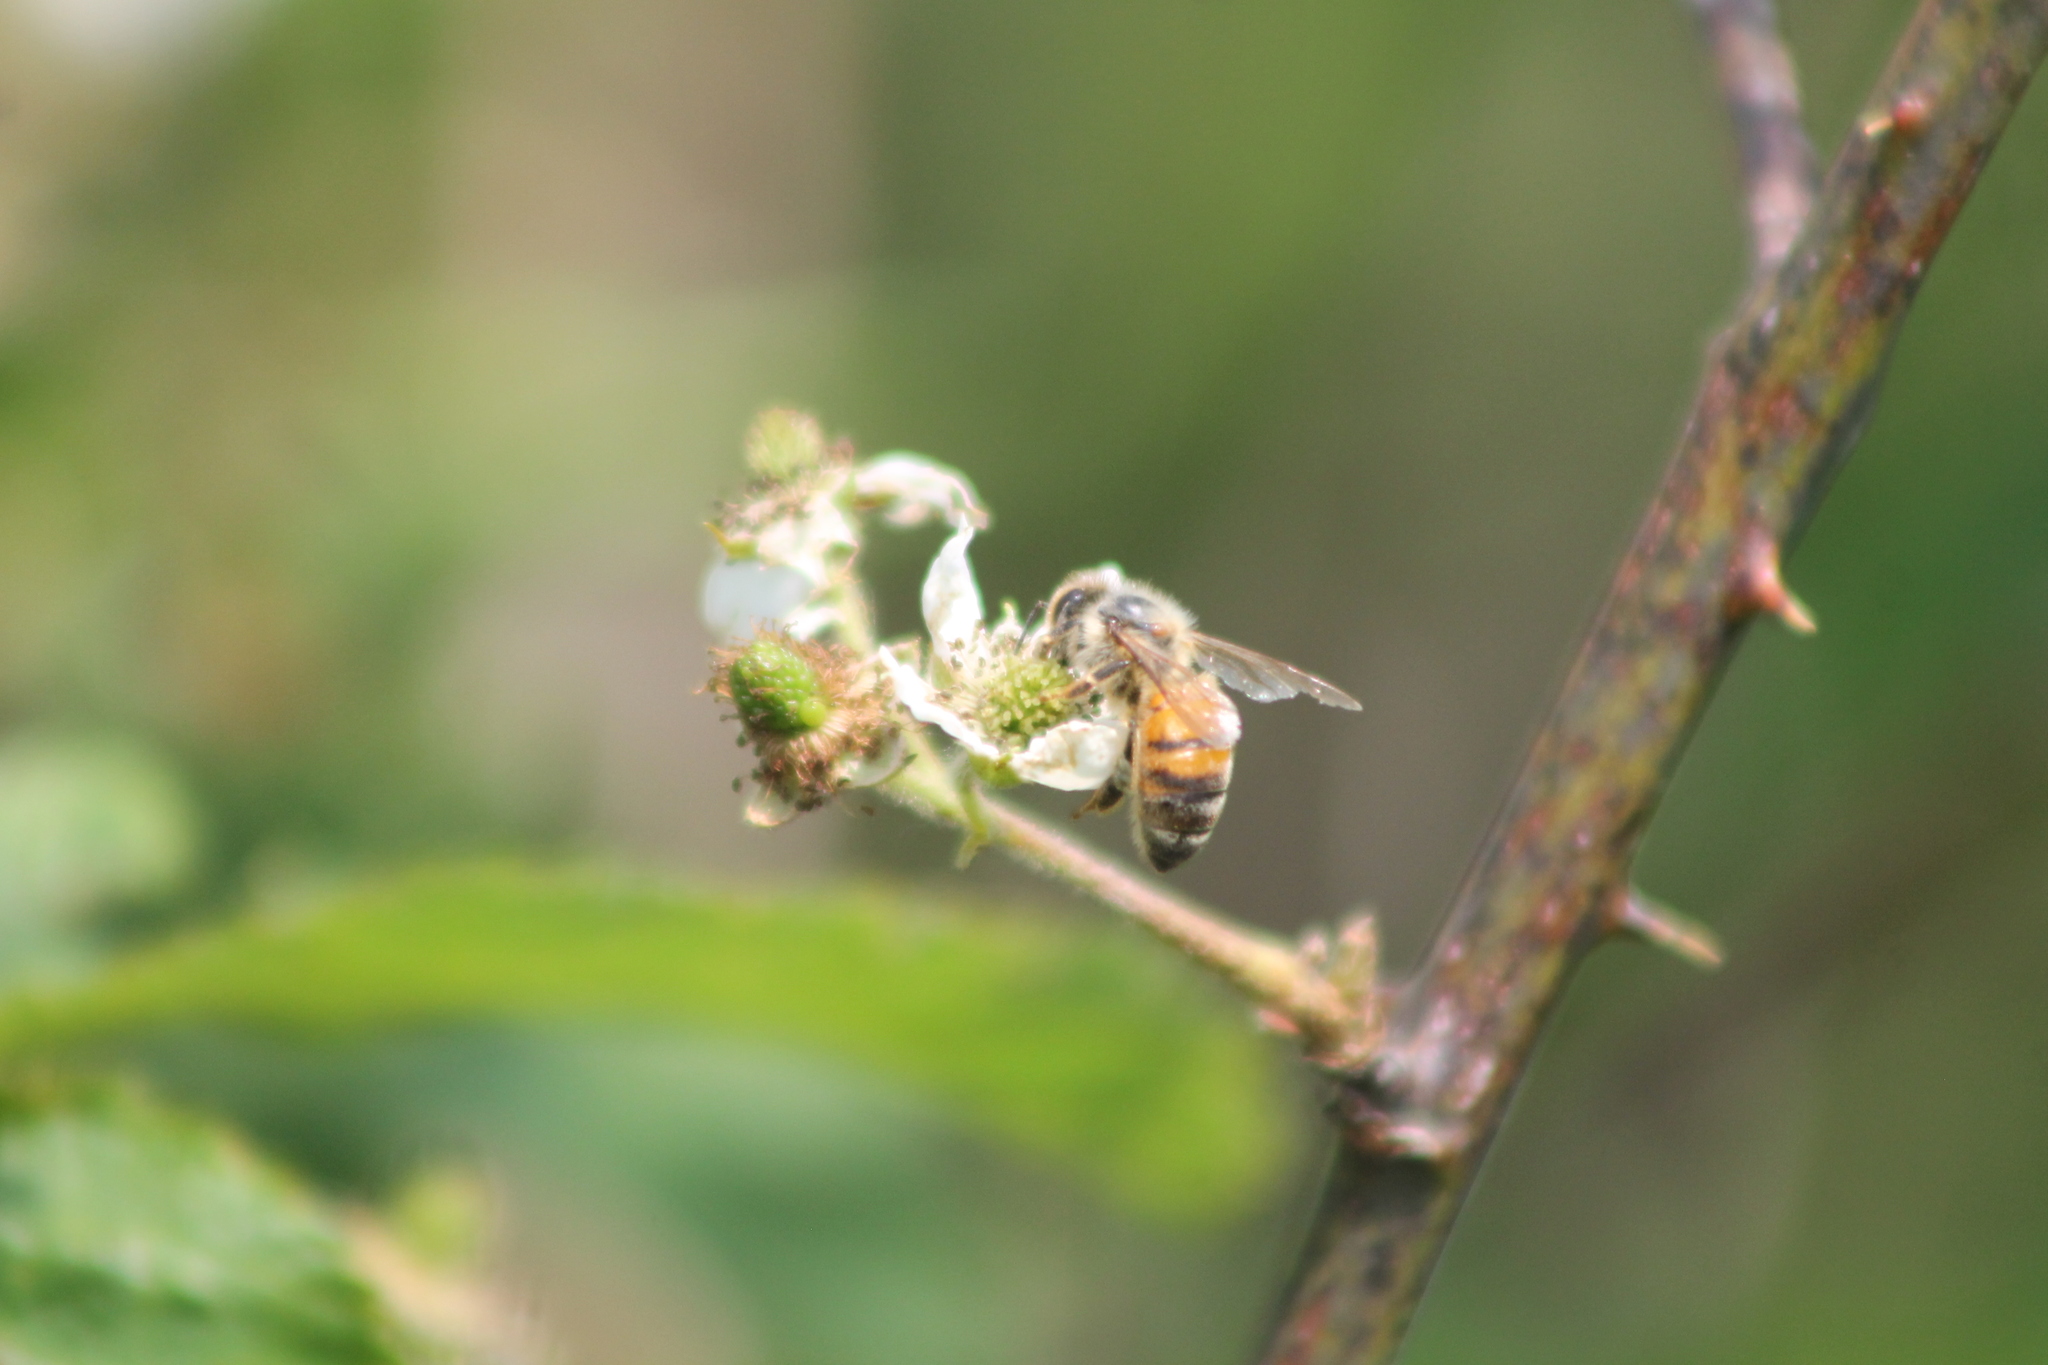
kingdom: Animalia
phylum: Arthropoda
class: Insecta
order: Hymenoptera
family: Apidae
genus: Apis
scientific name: Apis mellifera
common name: Honey bee
